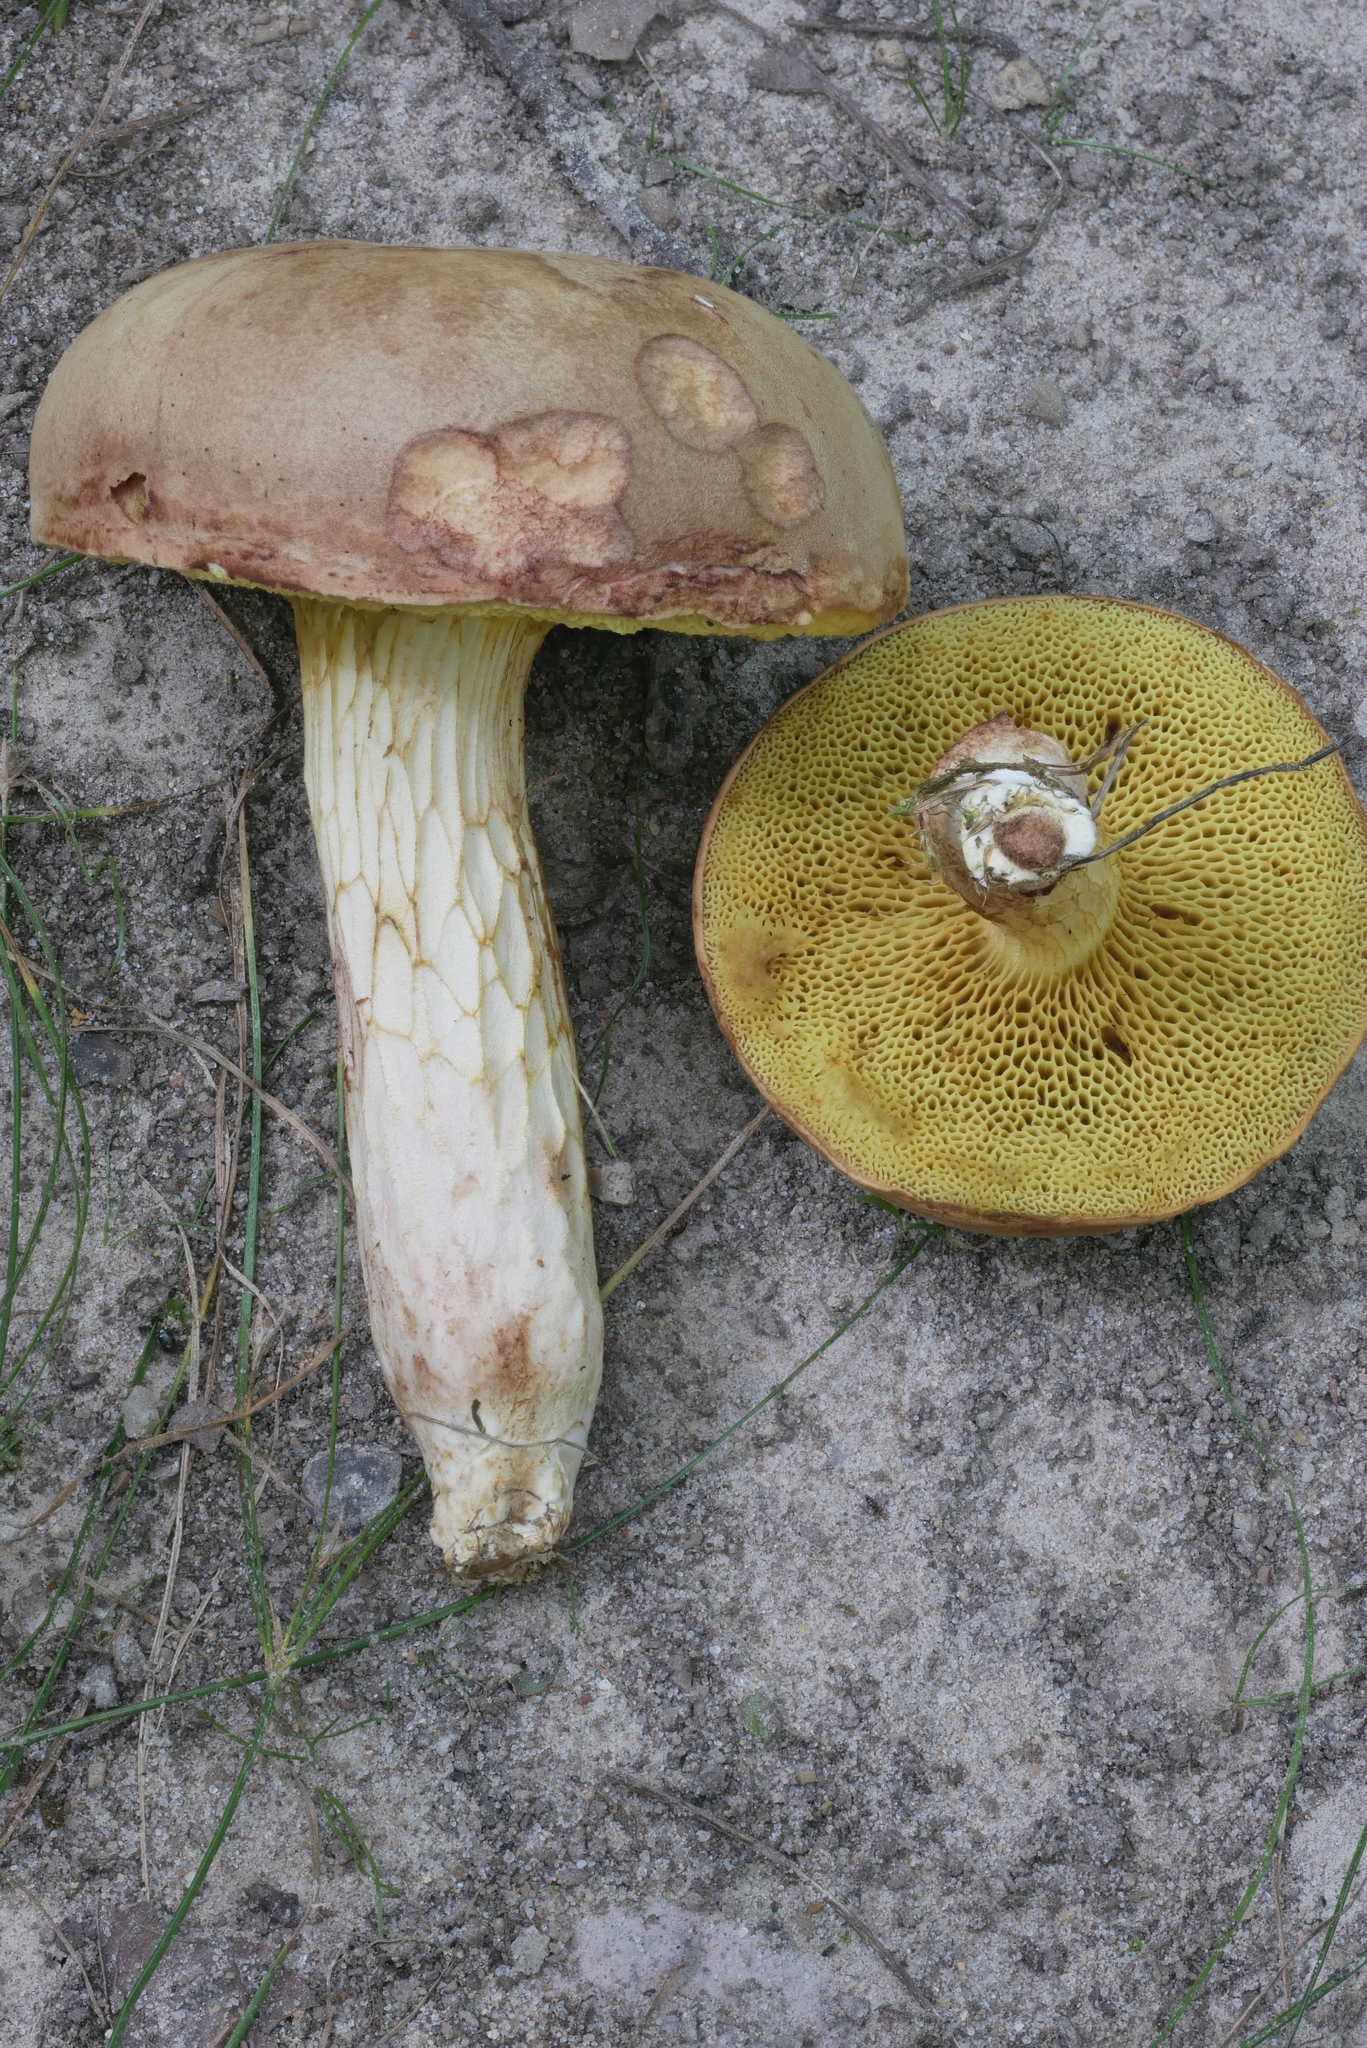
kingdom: Fungi
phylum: Basidiomycota
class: Agaricomycetes
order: Boletales
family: Boletaceae
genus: Xerocomus
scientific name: Xerocomus tenax
